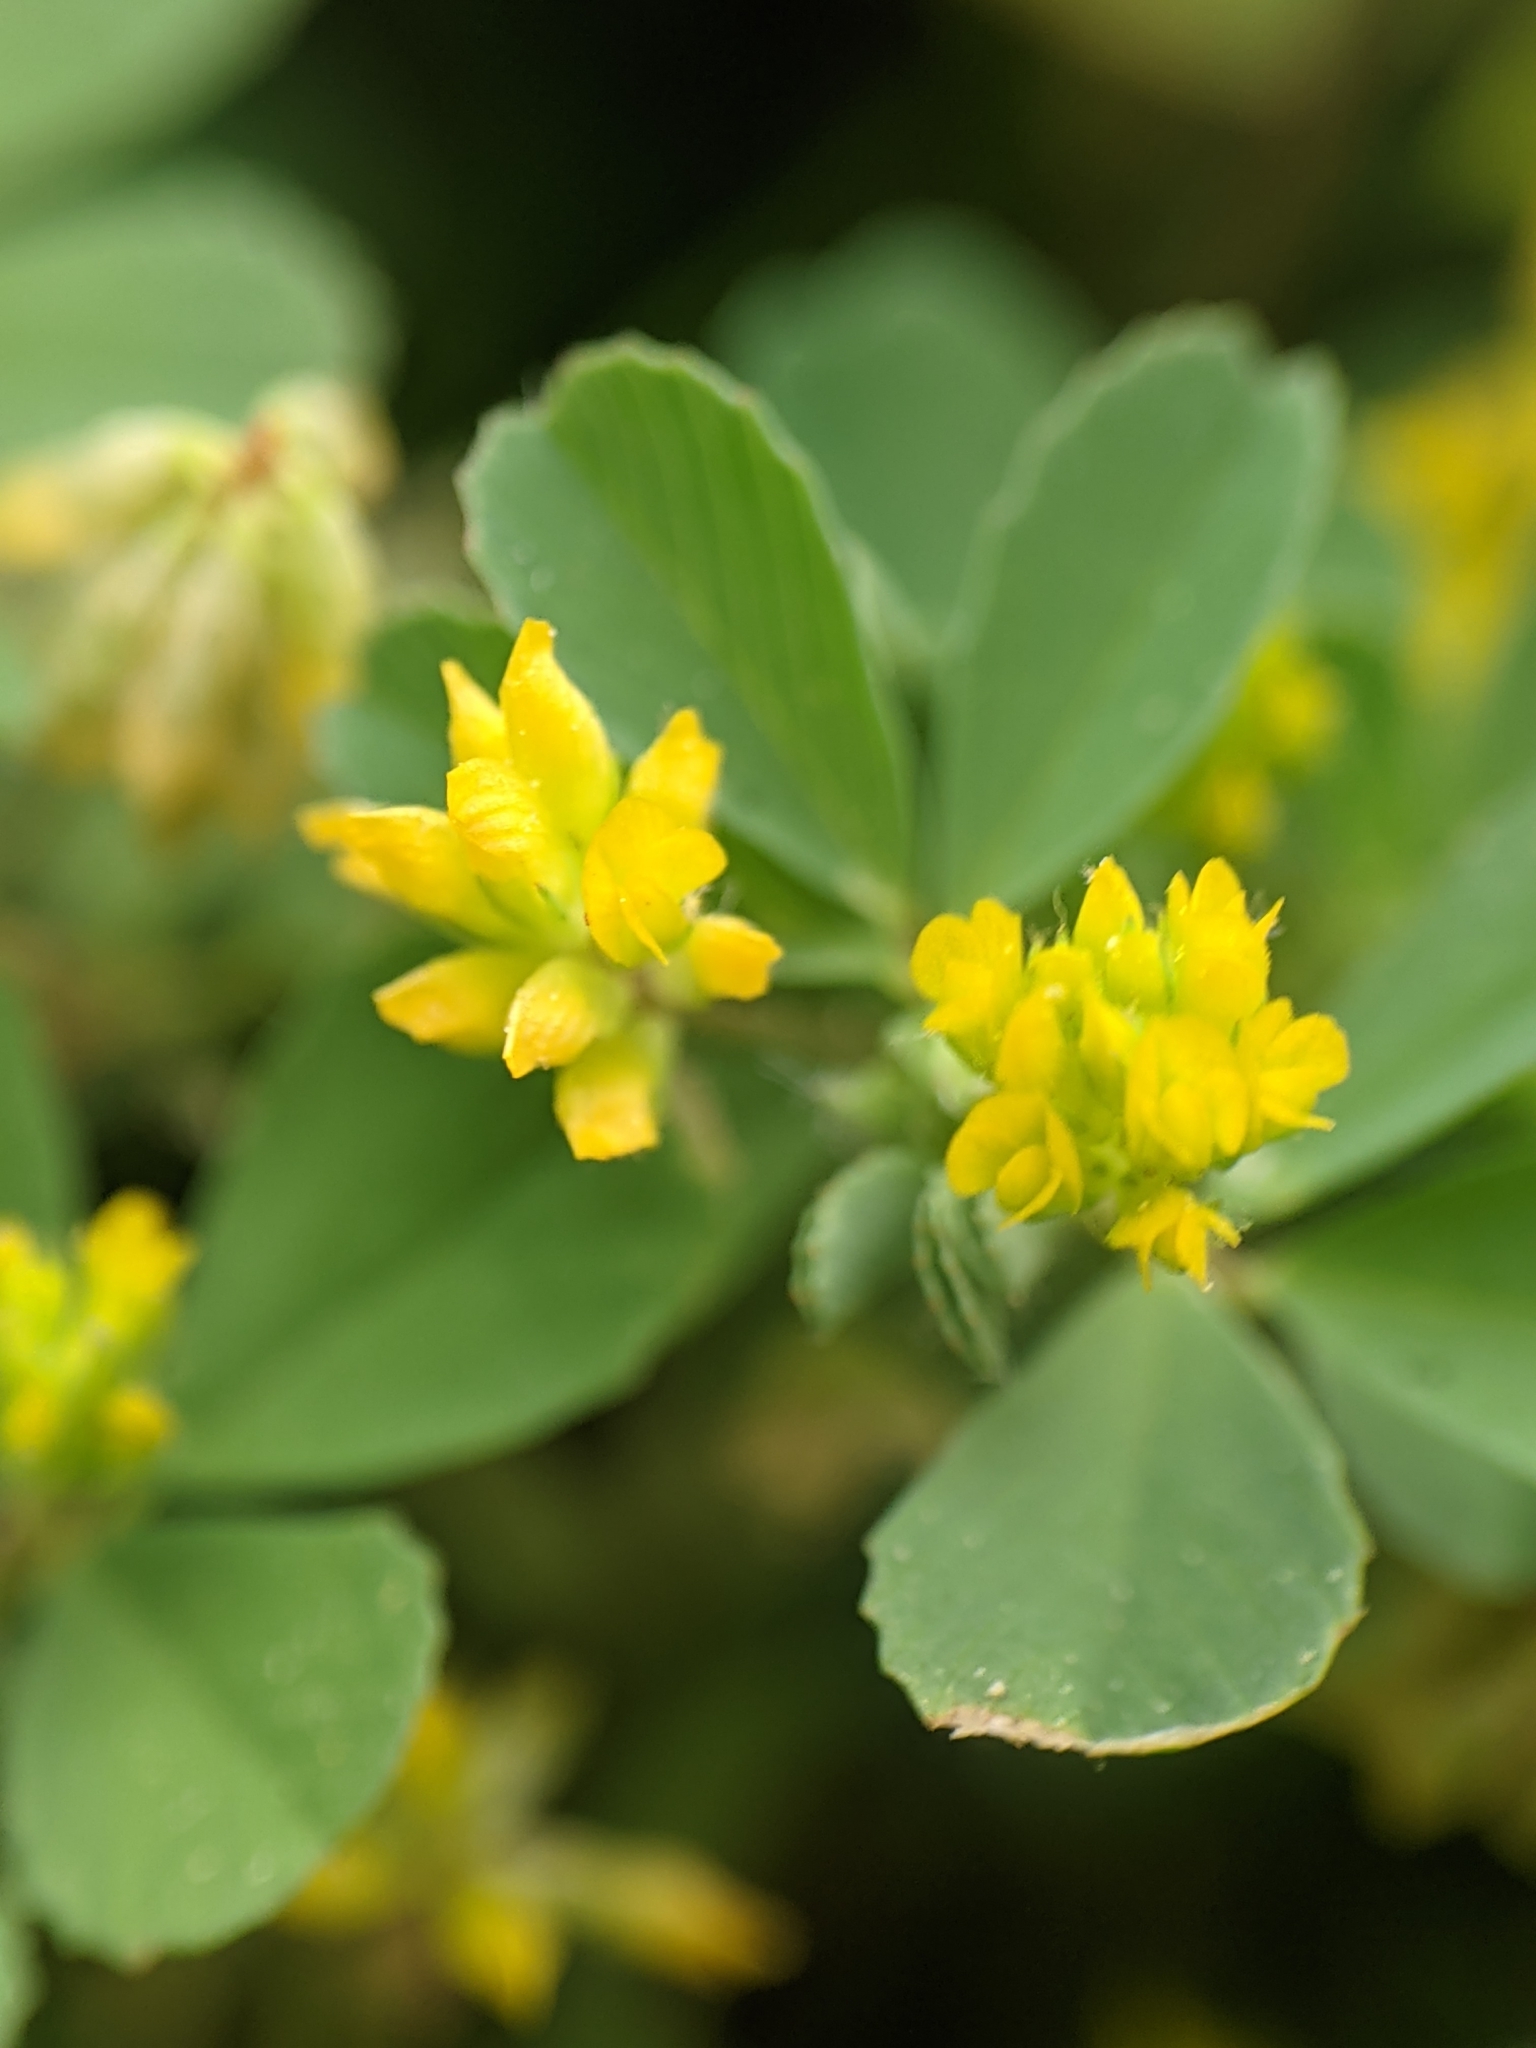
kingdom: Plantae
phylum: Tracheophyta
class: Magnoliopsida
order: Fabales
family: Fabaceae
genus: Trifolium
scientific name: Trifolium dubium
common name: Suckling clover
